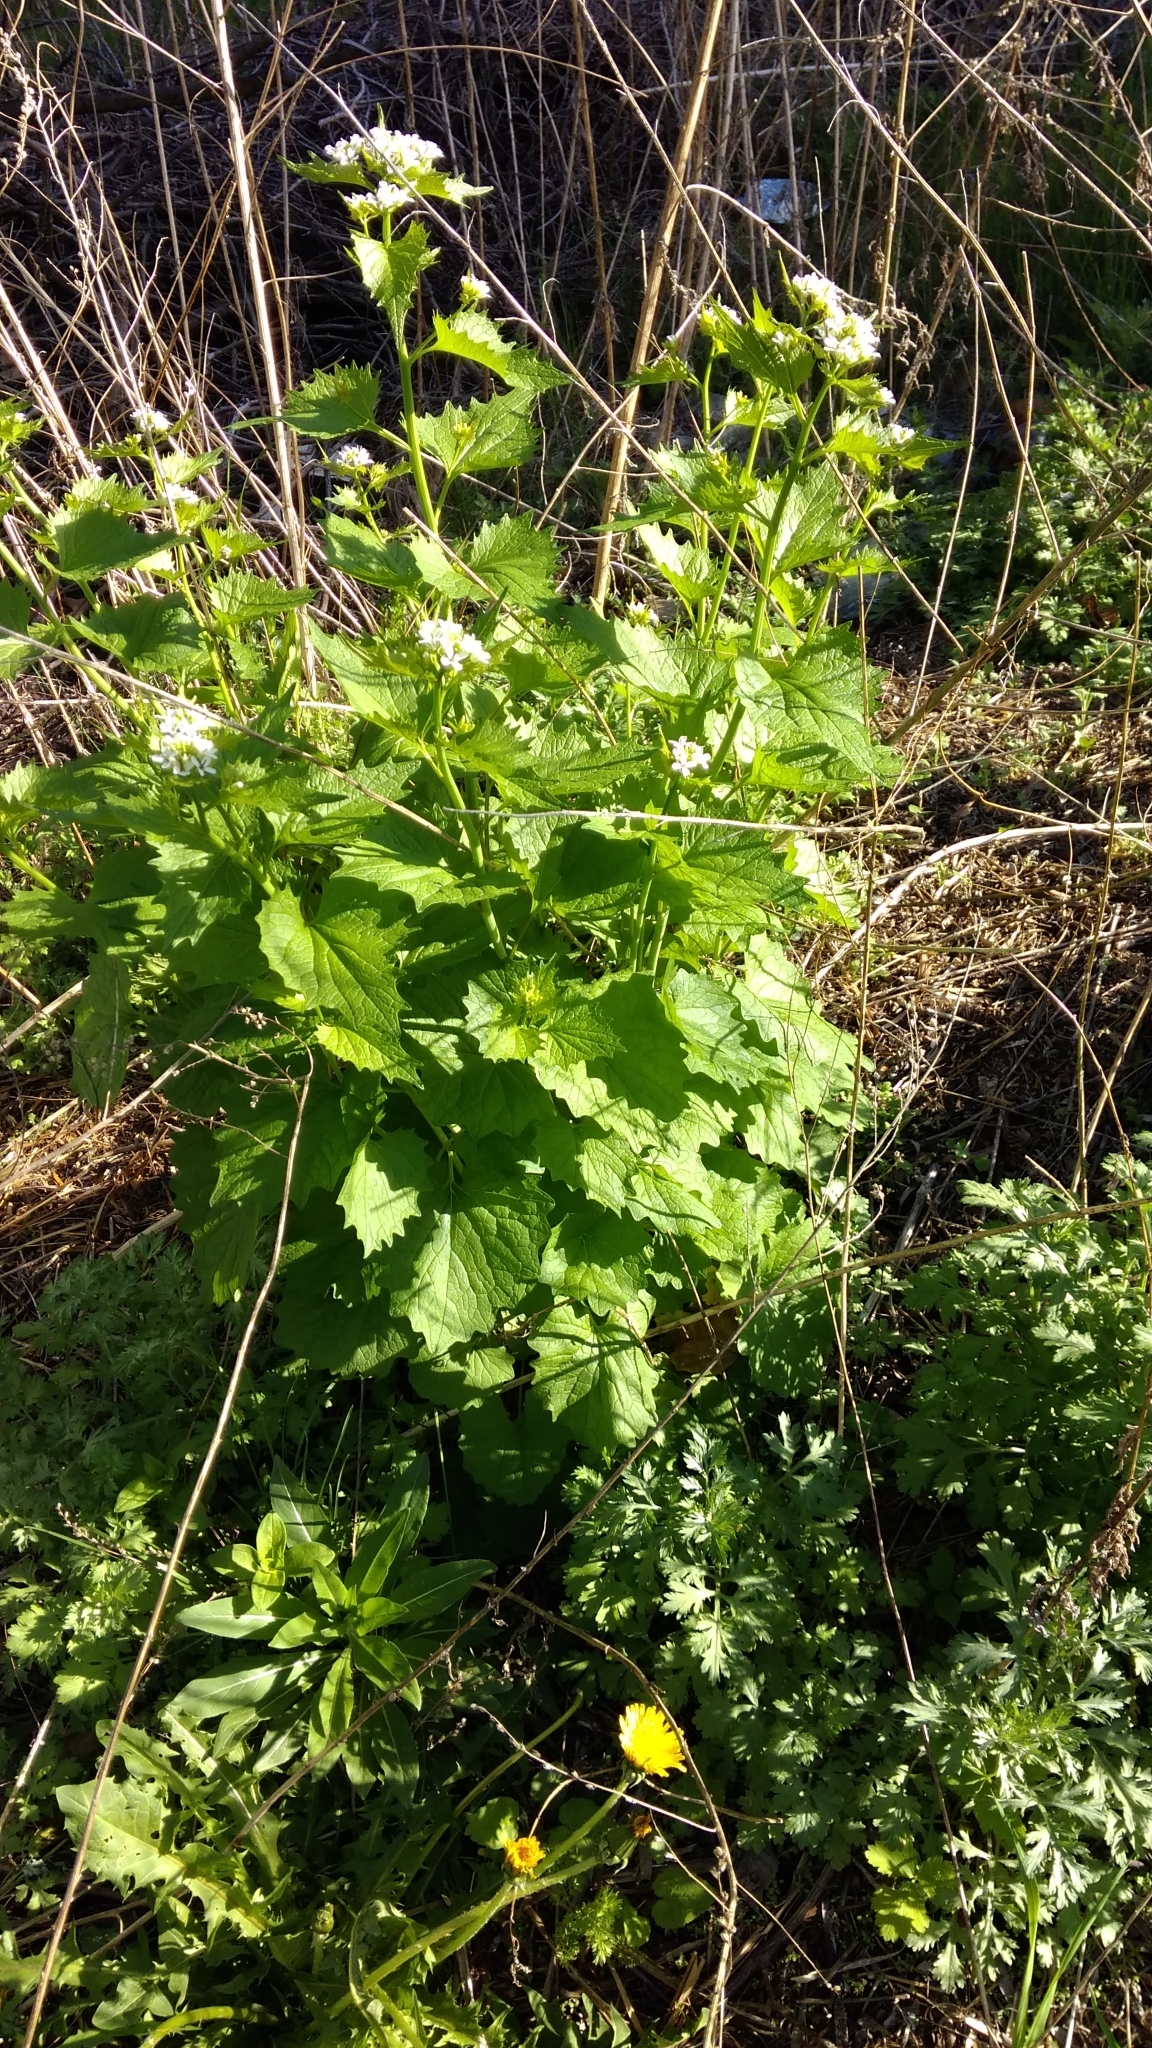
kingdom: Plantae
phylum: Tracheophyta
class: Magnoliopsida
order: Brassicales
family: Brassicaceae
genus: Alliaria
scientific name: Alliaria petiolata
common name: Garlic mustard
